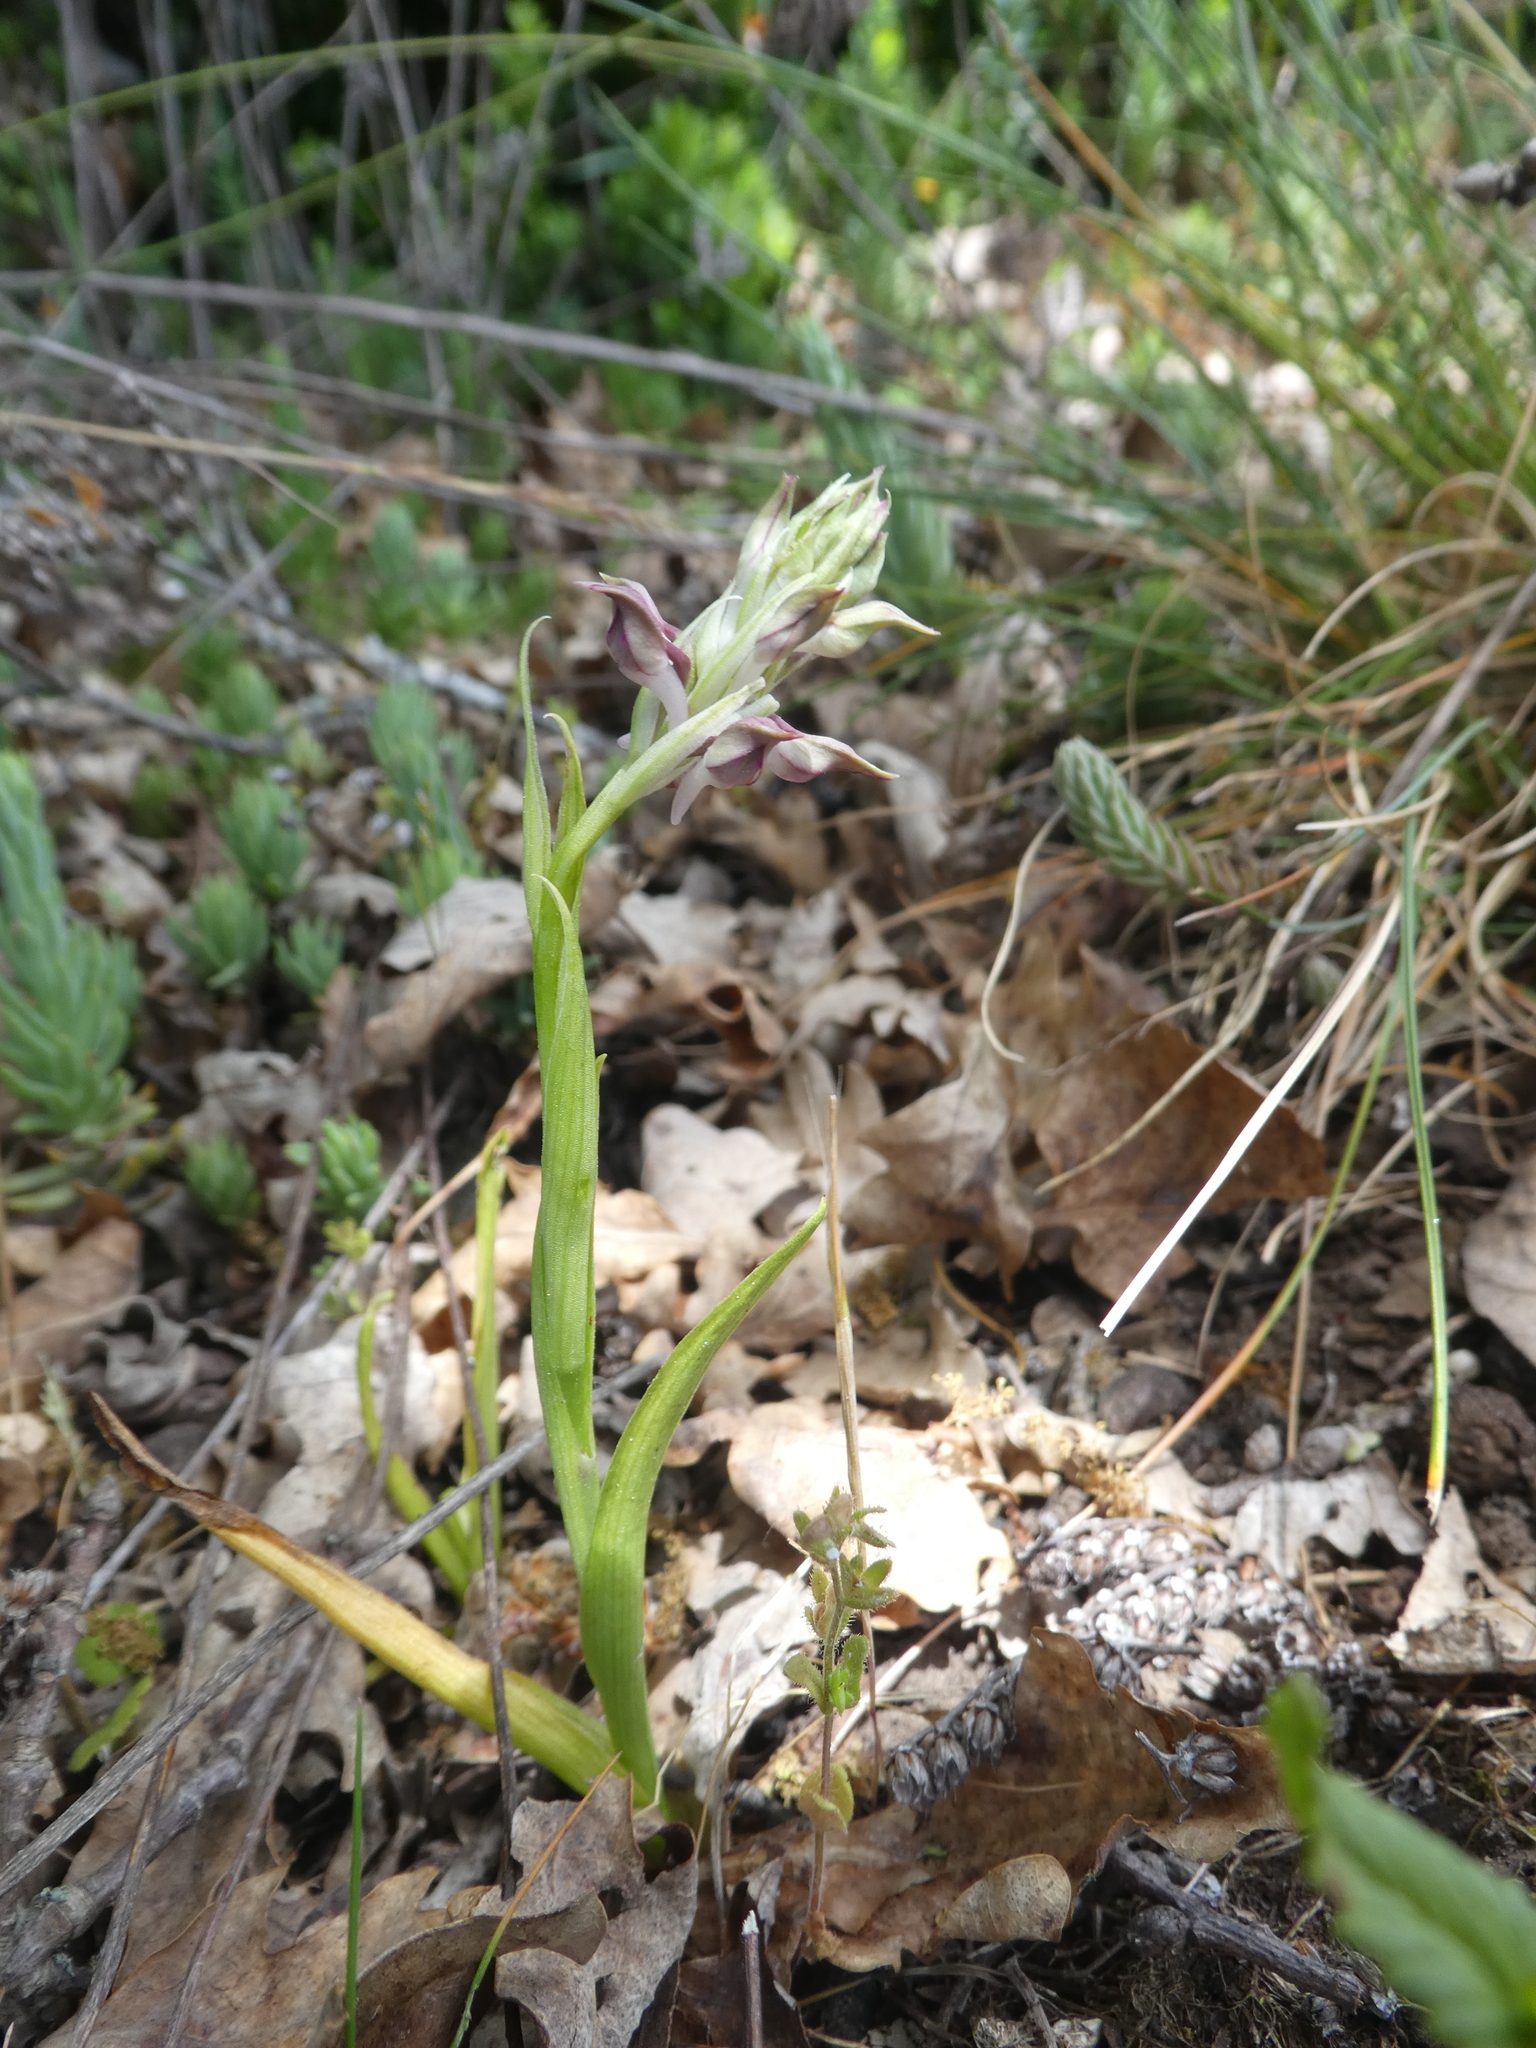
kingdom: Plantae
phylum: Tracheophyta
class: Liliopsida
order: Asparagales
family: Orchidaceae
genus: Anacamptis
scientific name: Anacamptis coriophora
